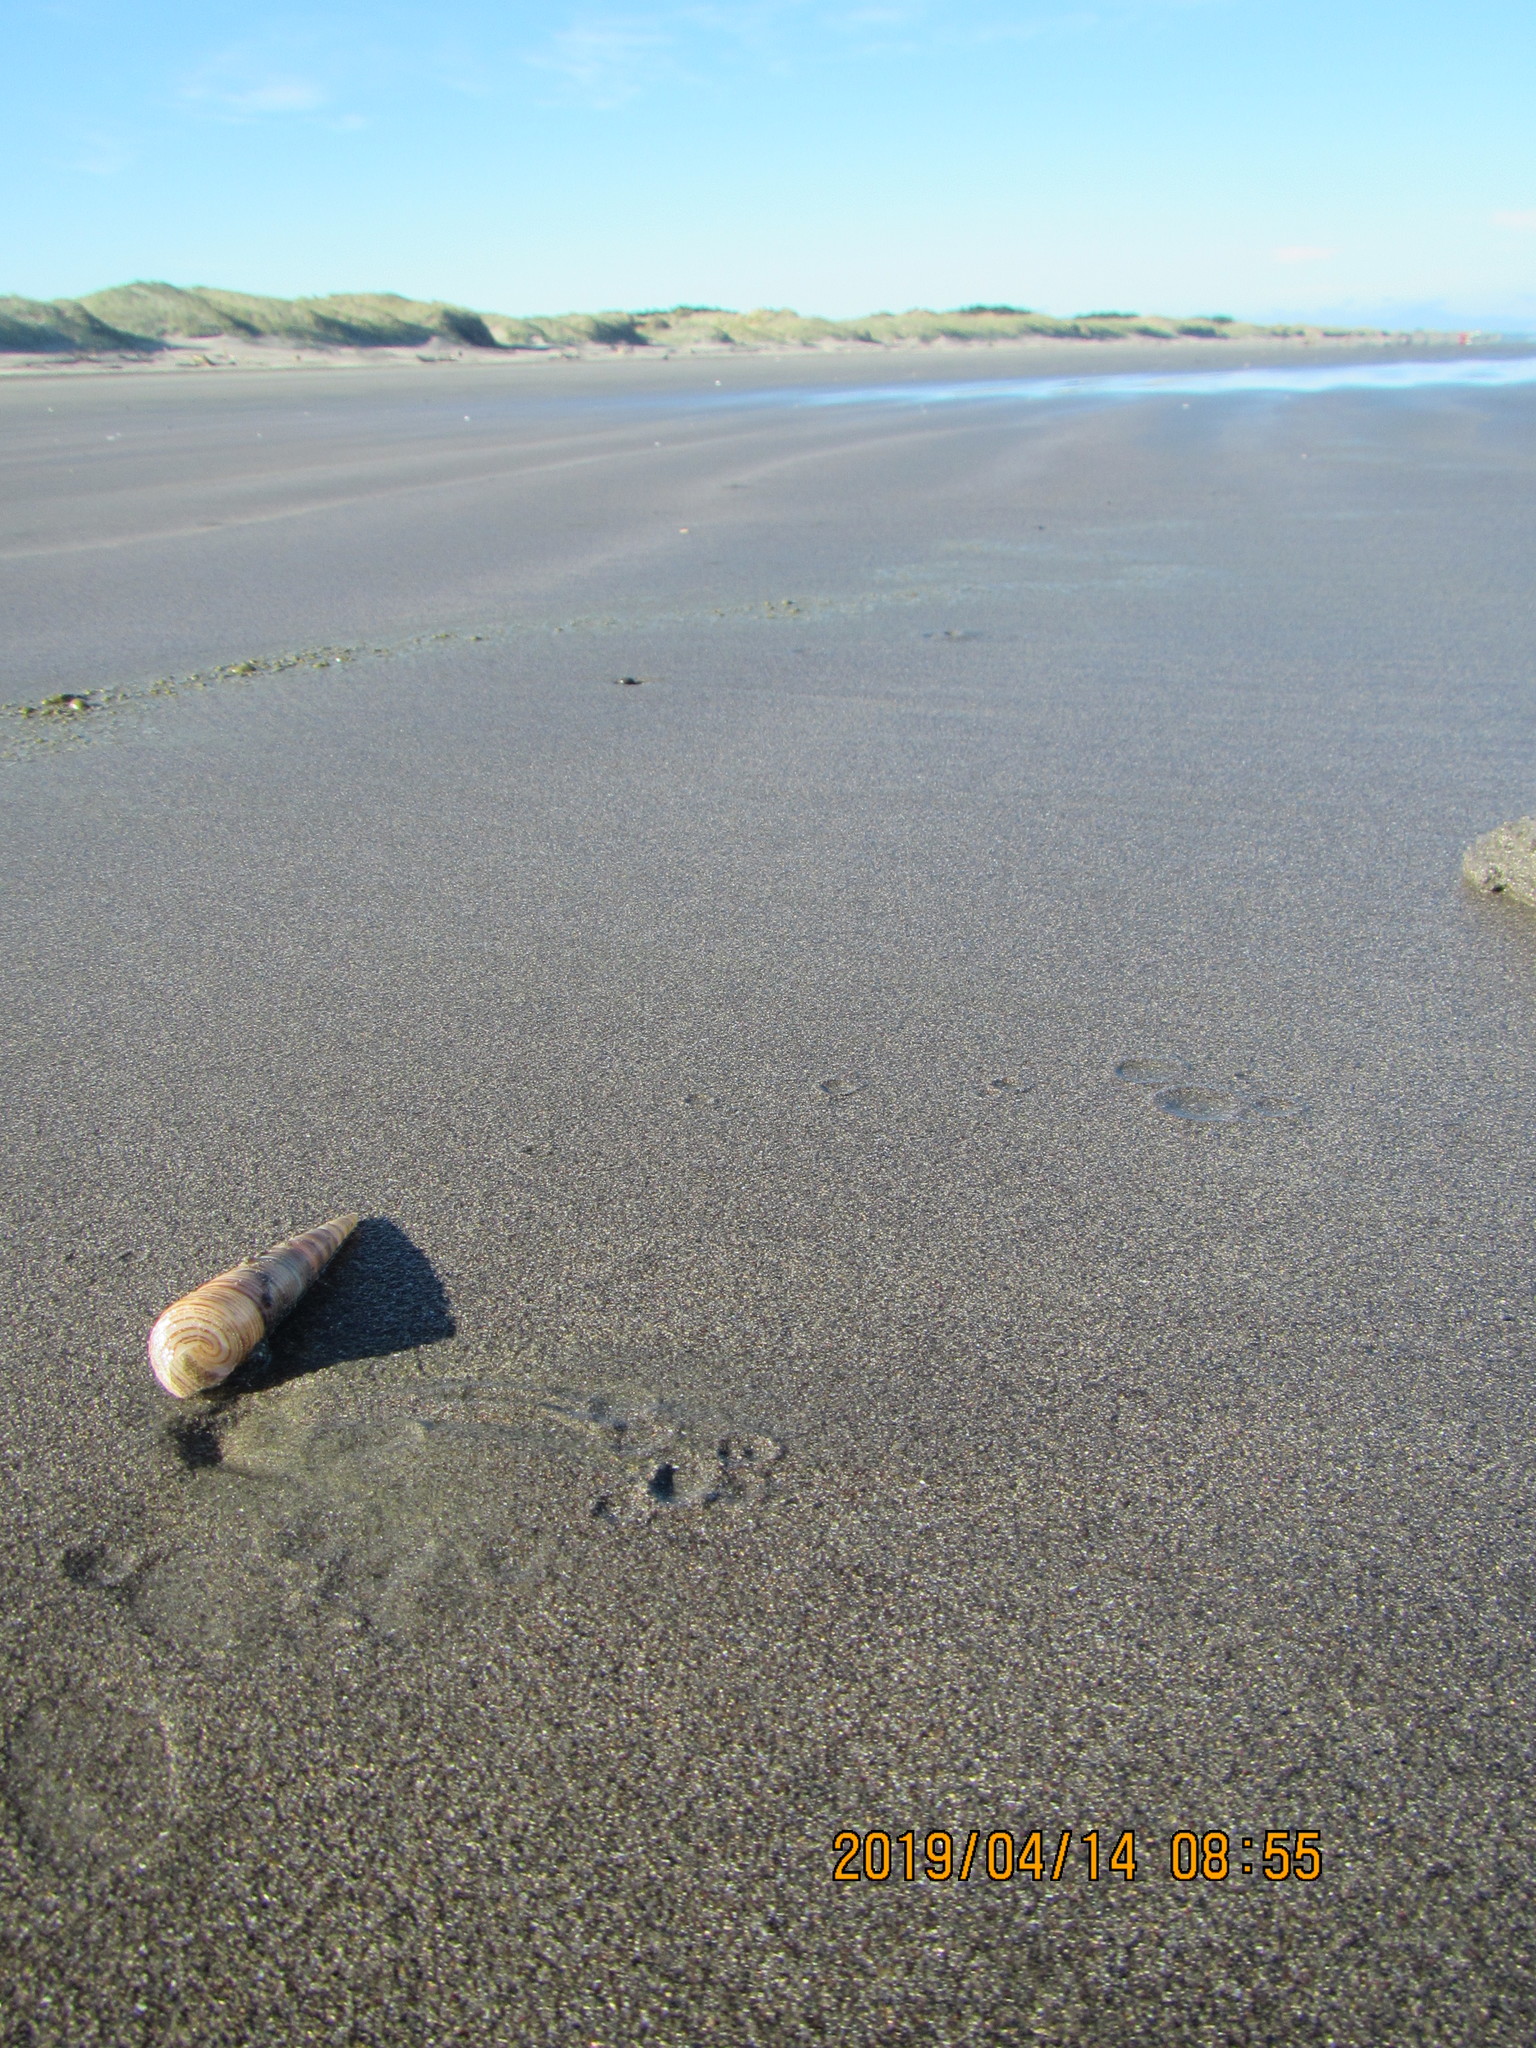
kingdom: Animalia
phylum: Mollusca
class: Gastropoda
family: Turritellidae
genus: Zeacolpus
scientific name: Zeacolpus vittatus
